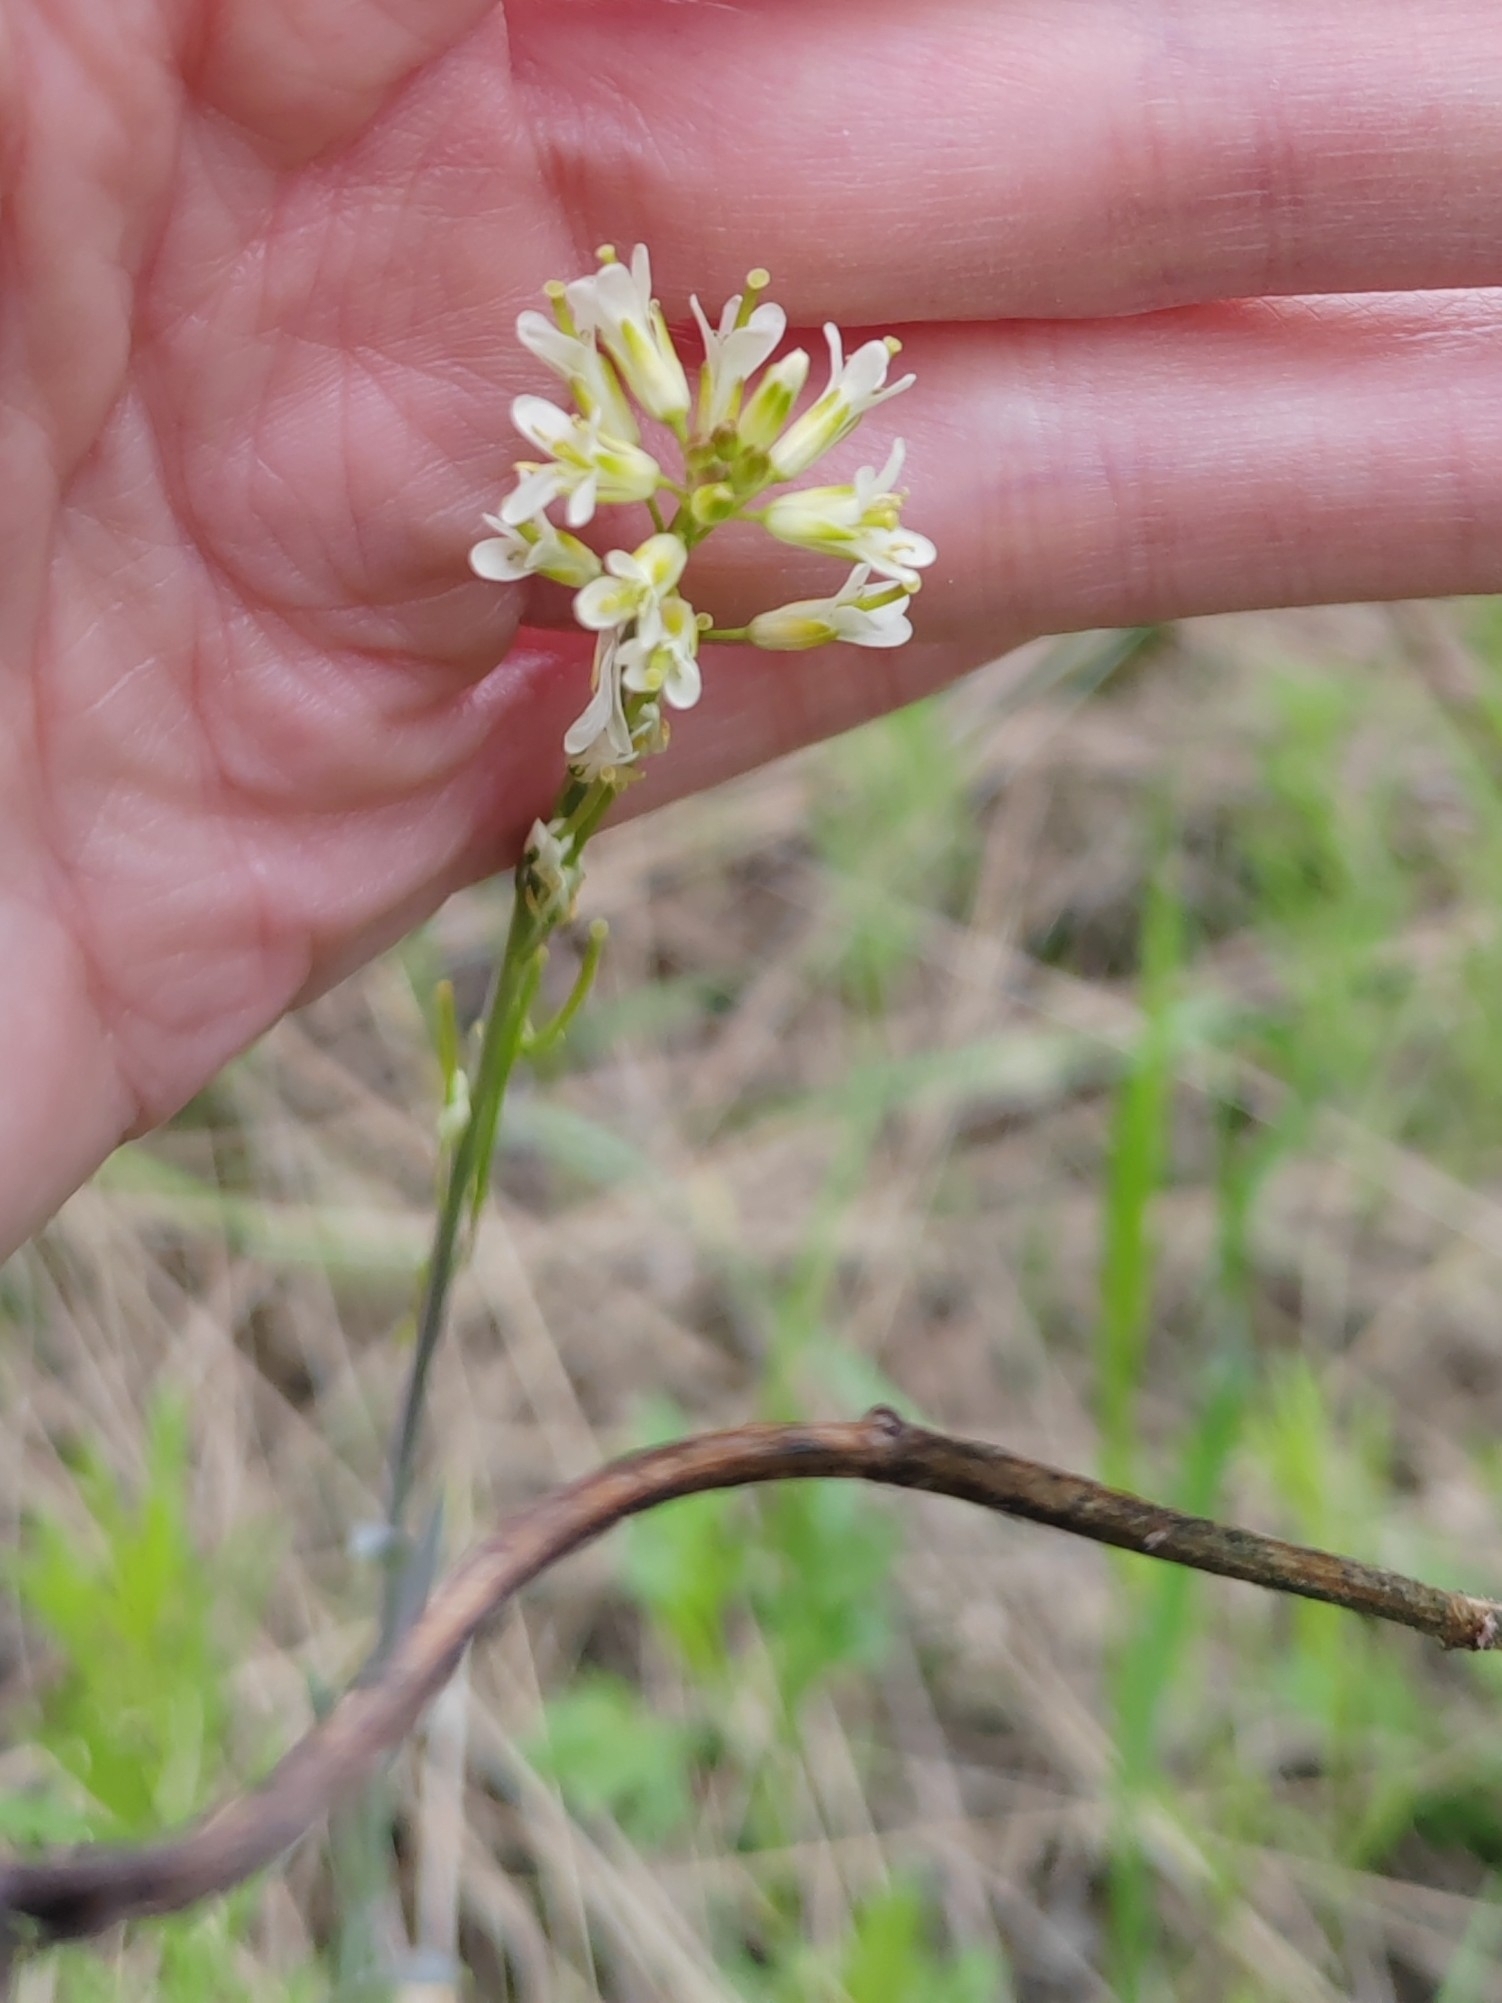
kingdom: Plantae
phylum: Tracheophyta
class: Magnoliopsida
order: Brassicales
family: Brassicaceae
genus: Turritis
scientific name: Turritis glabra
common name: Tower rockcress
